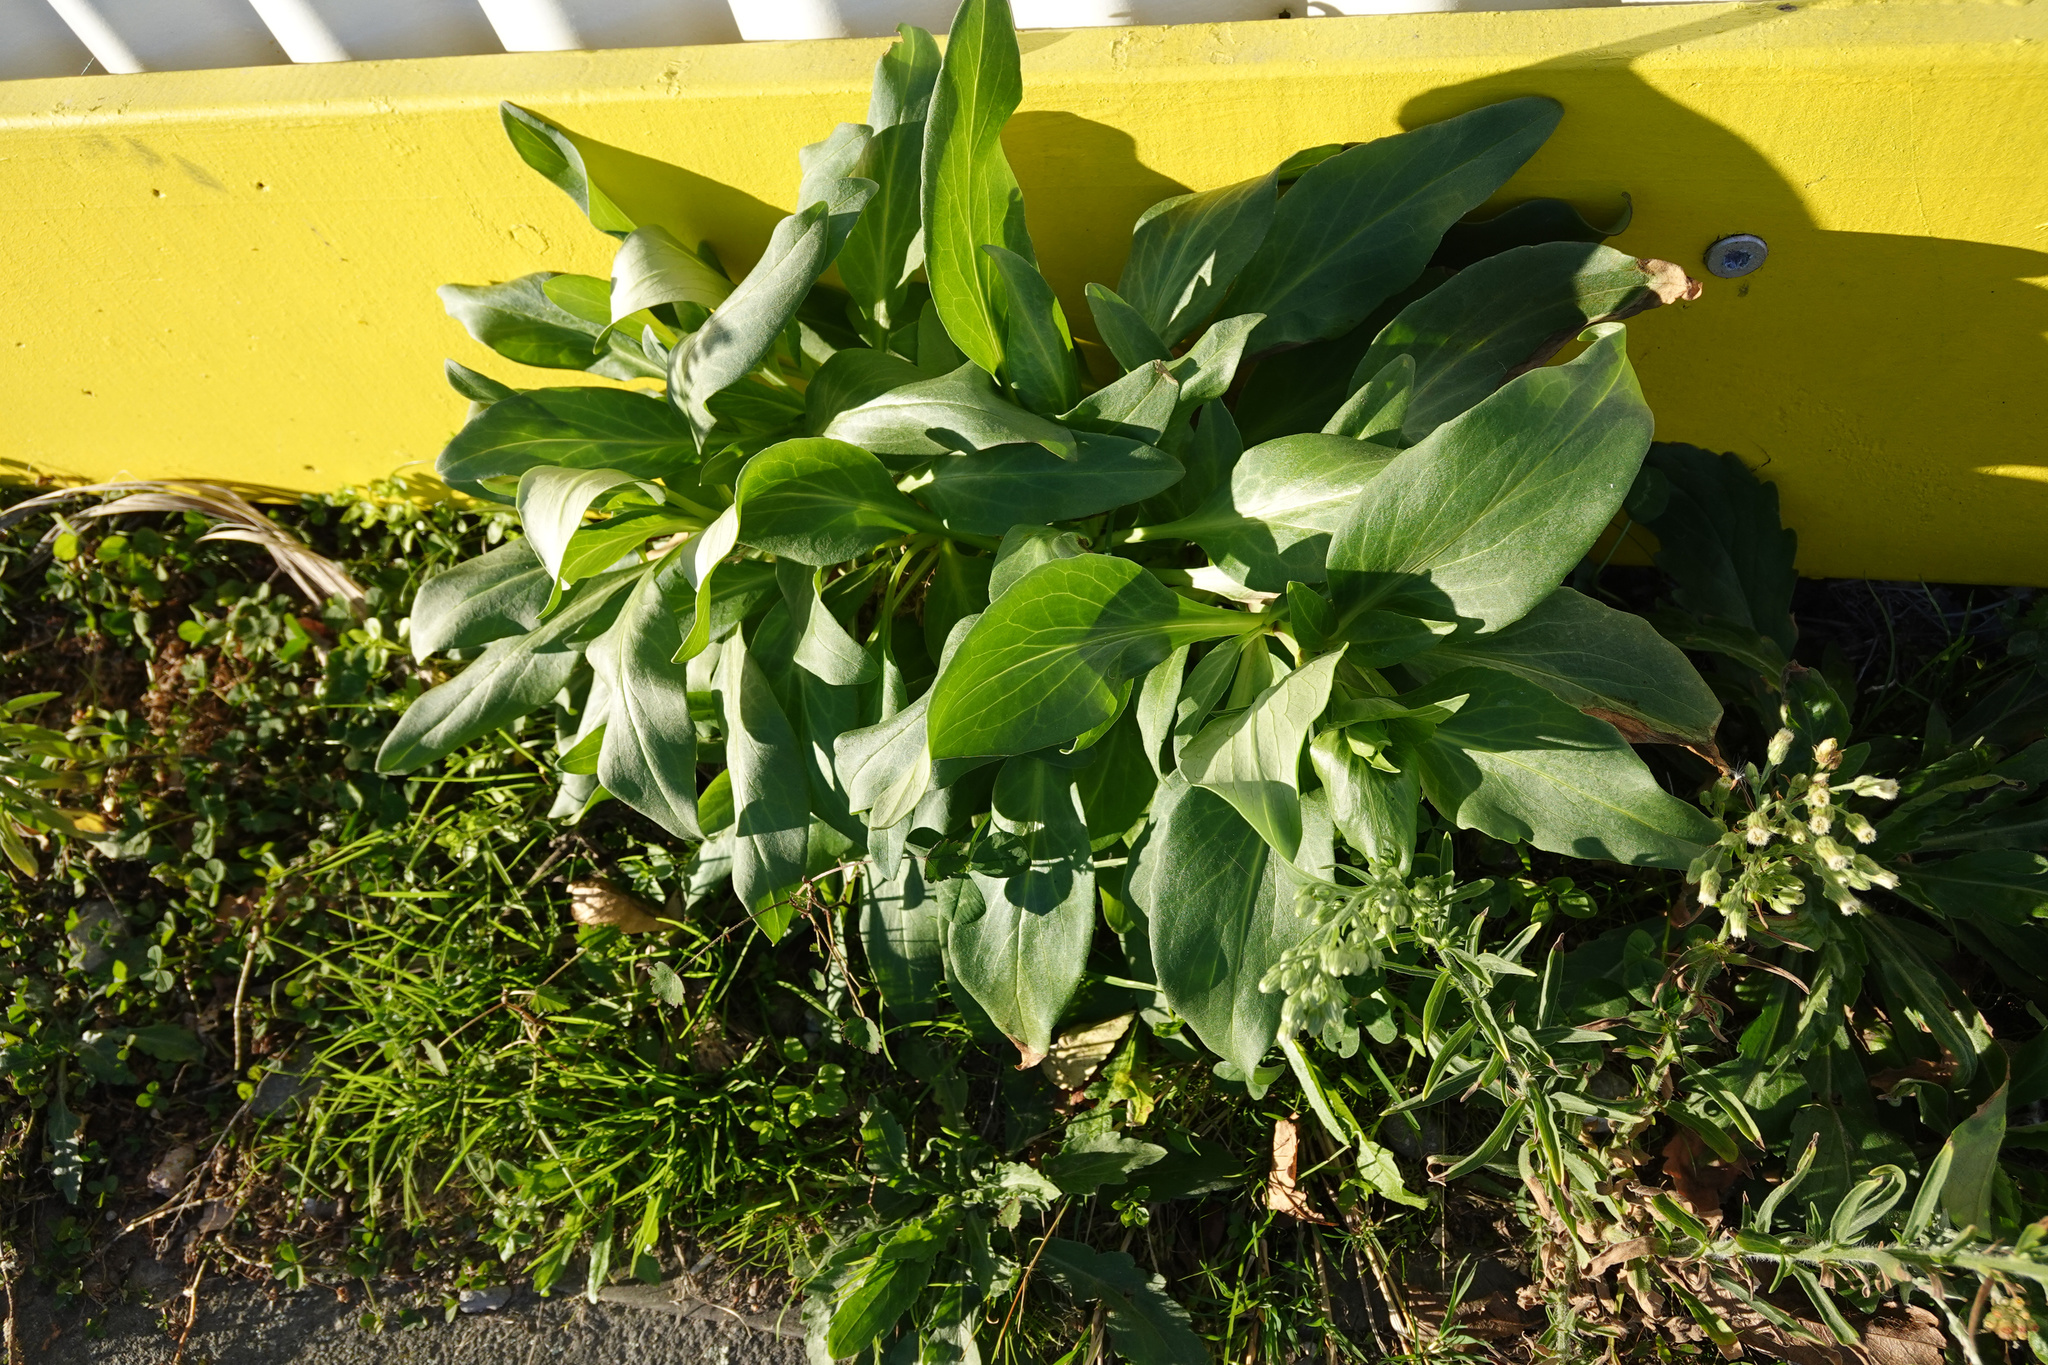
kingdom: Plantae
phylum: Tracheophyta
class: Magnoliopsida
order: Dipsacales
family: Caprifoliaceae
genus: Centranthus
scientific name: Centranthus ruber
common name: Red valerian
